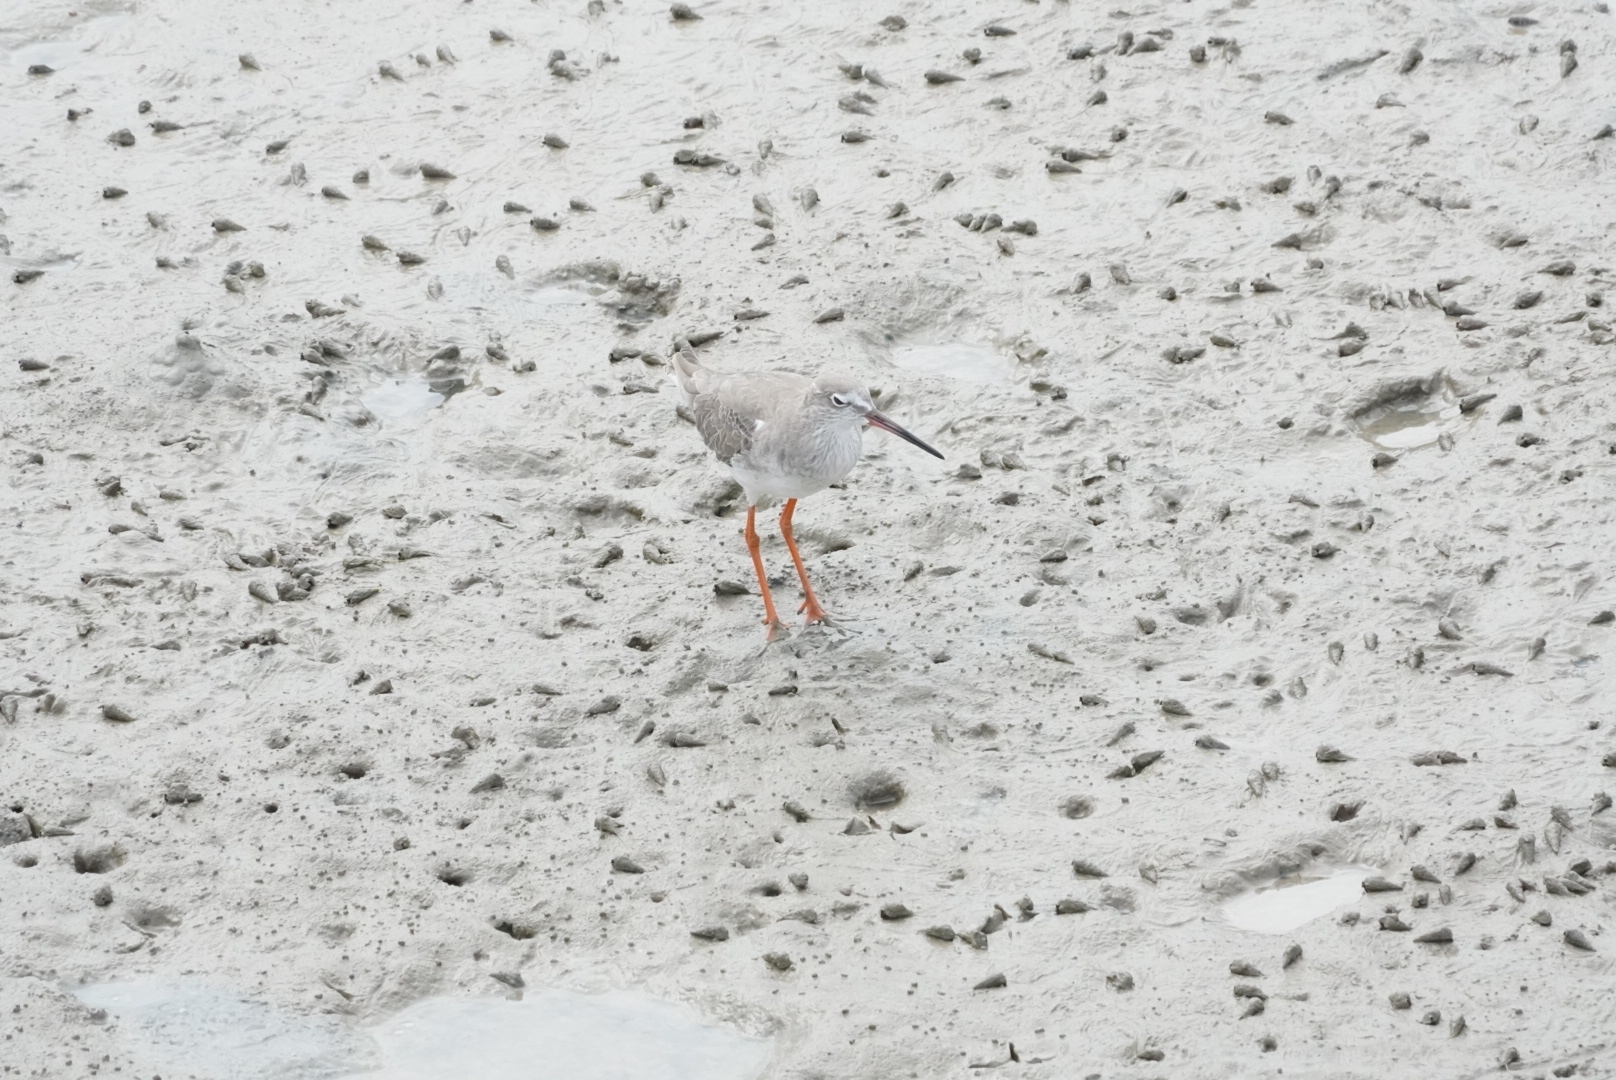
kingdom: Animalia
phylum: Chordata
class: Aves
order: Charadriiformes
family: Scolopacidae
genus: Tringa
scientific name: Tringa totanus
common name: Common redshank
